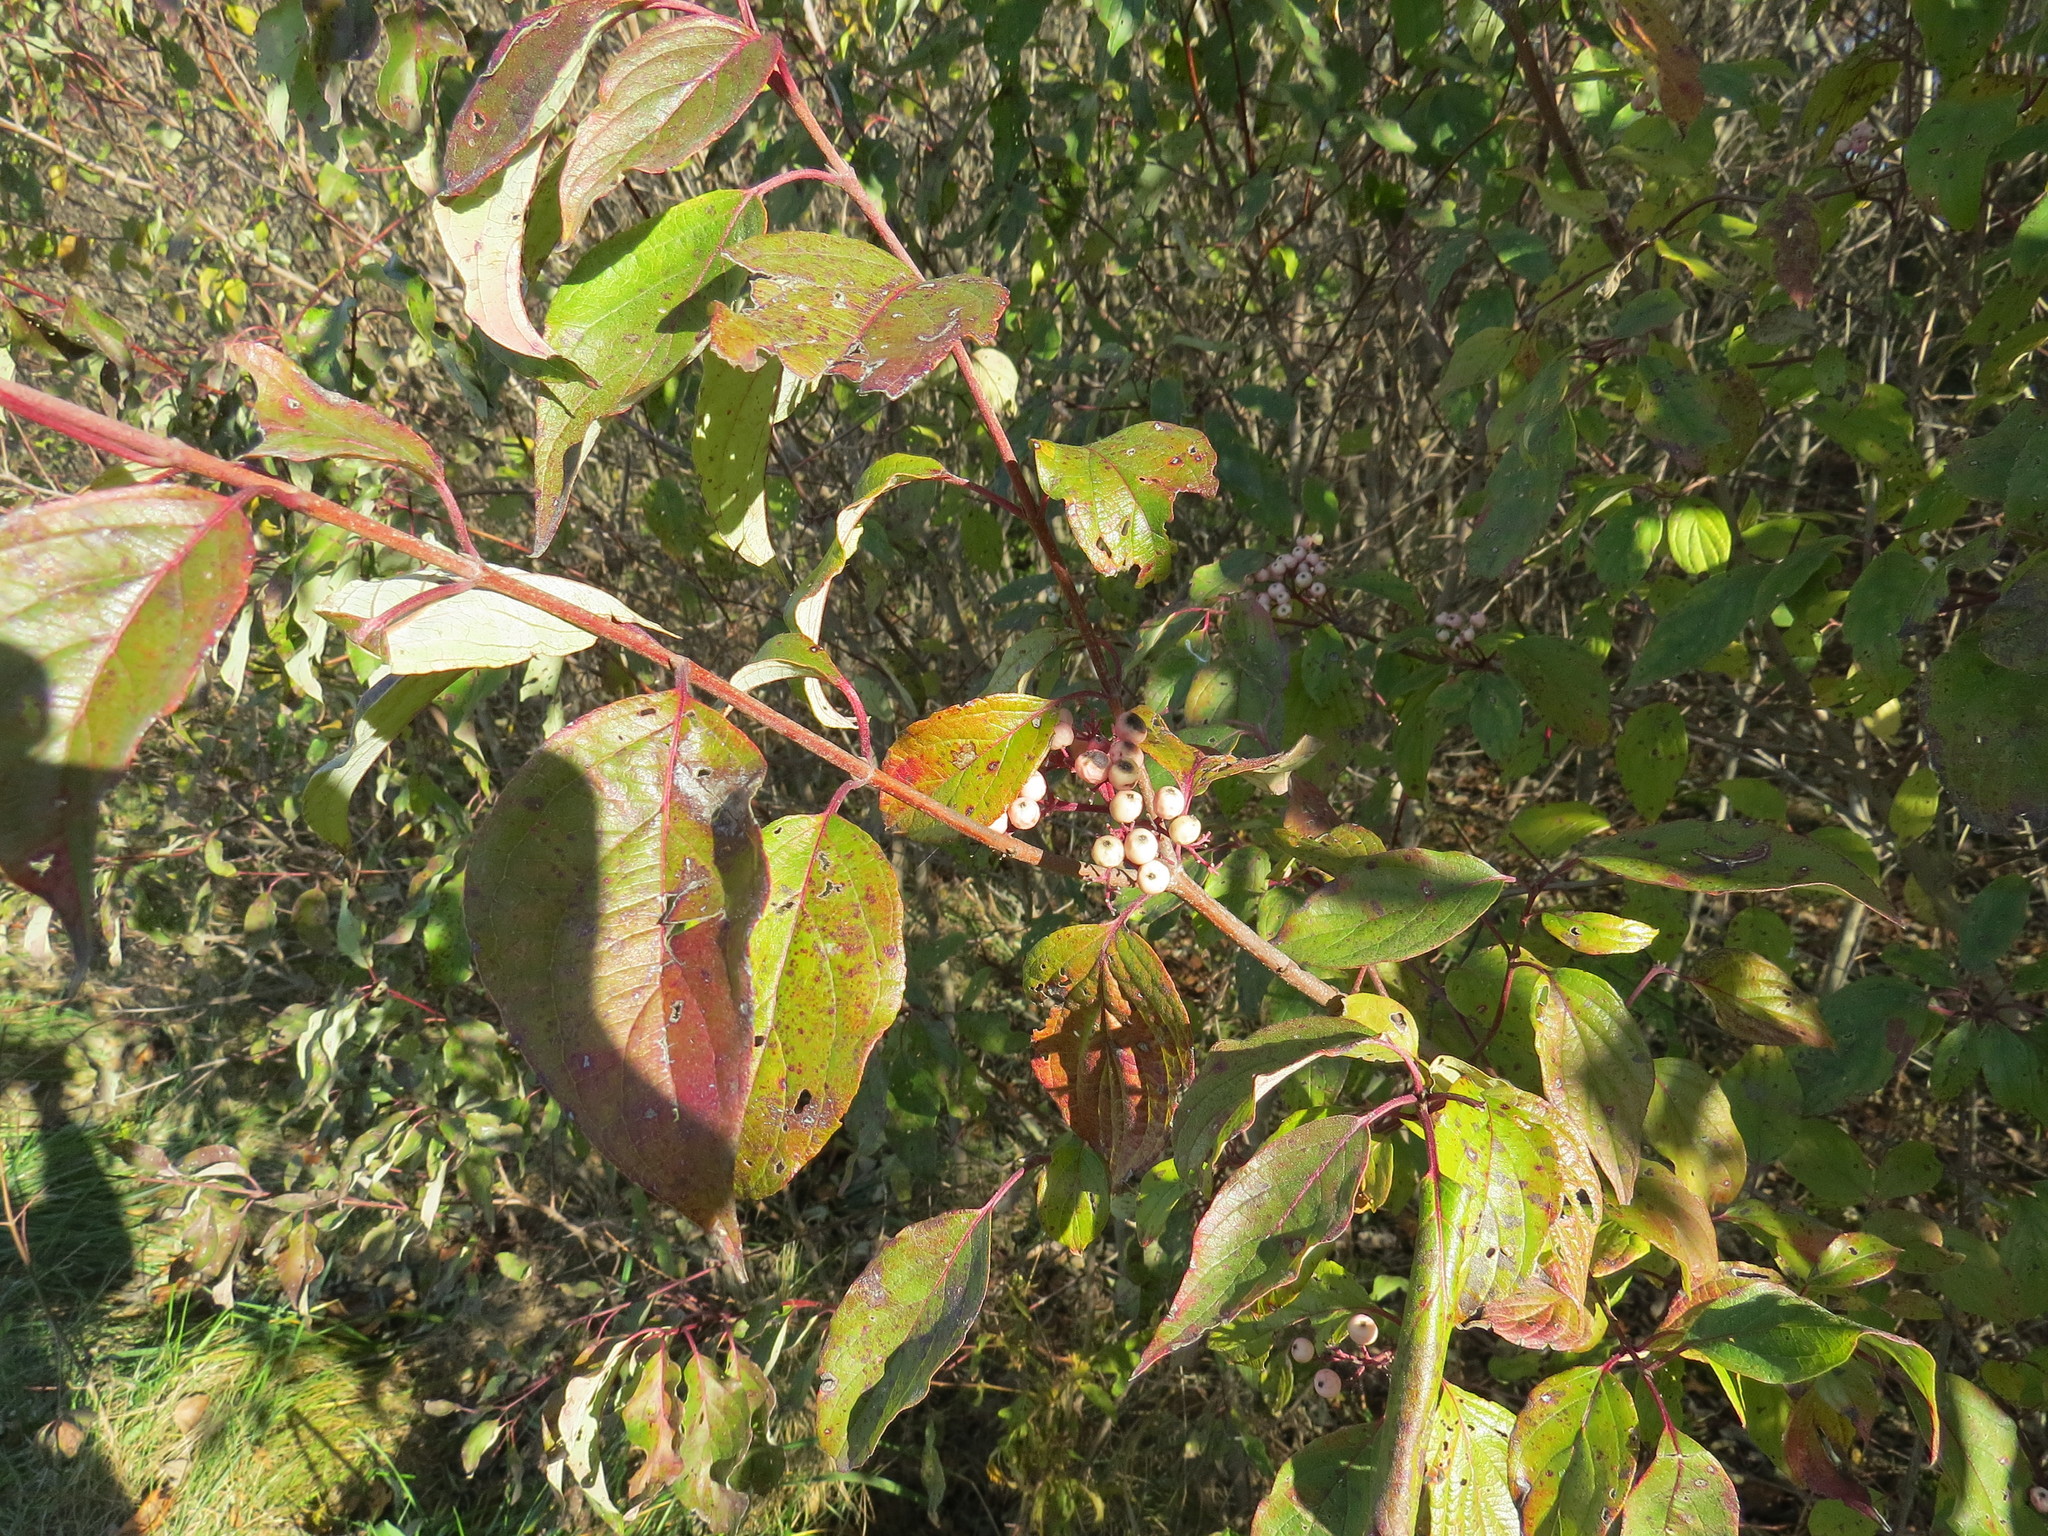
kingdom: Plantae
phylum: Tracheophyta
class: Magnoliopsida
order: Cornales
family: Cornaceae
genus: Cornus
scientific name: Cornus drummondii
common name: Rough-leaf dogwood
